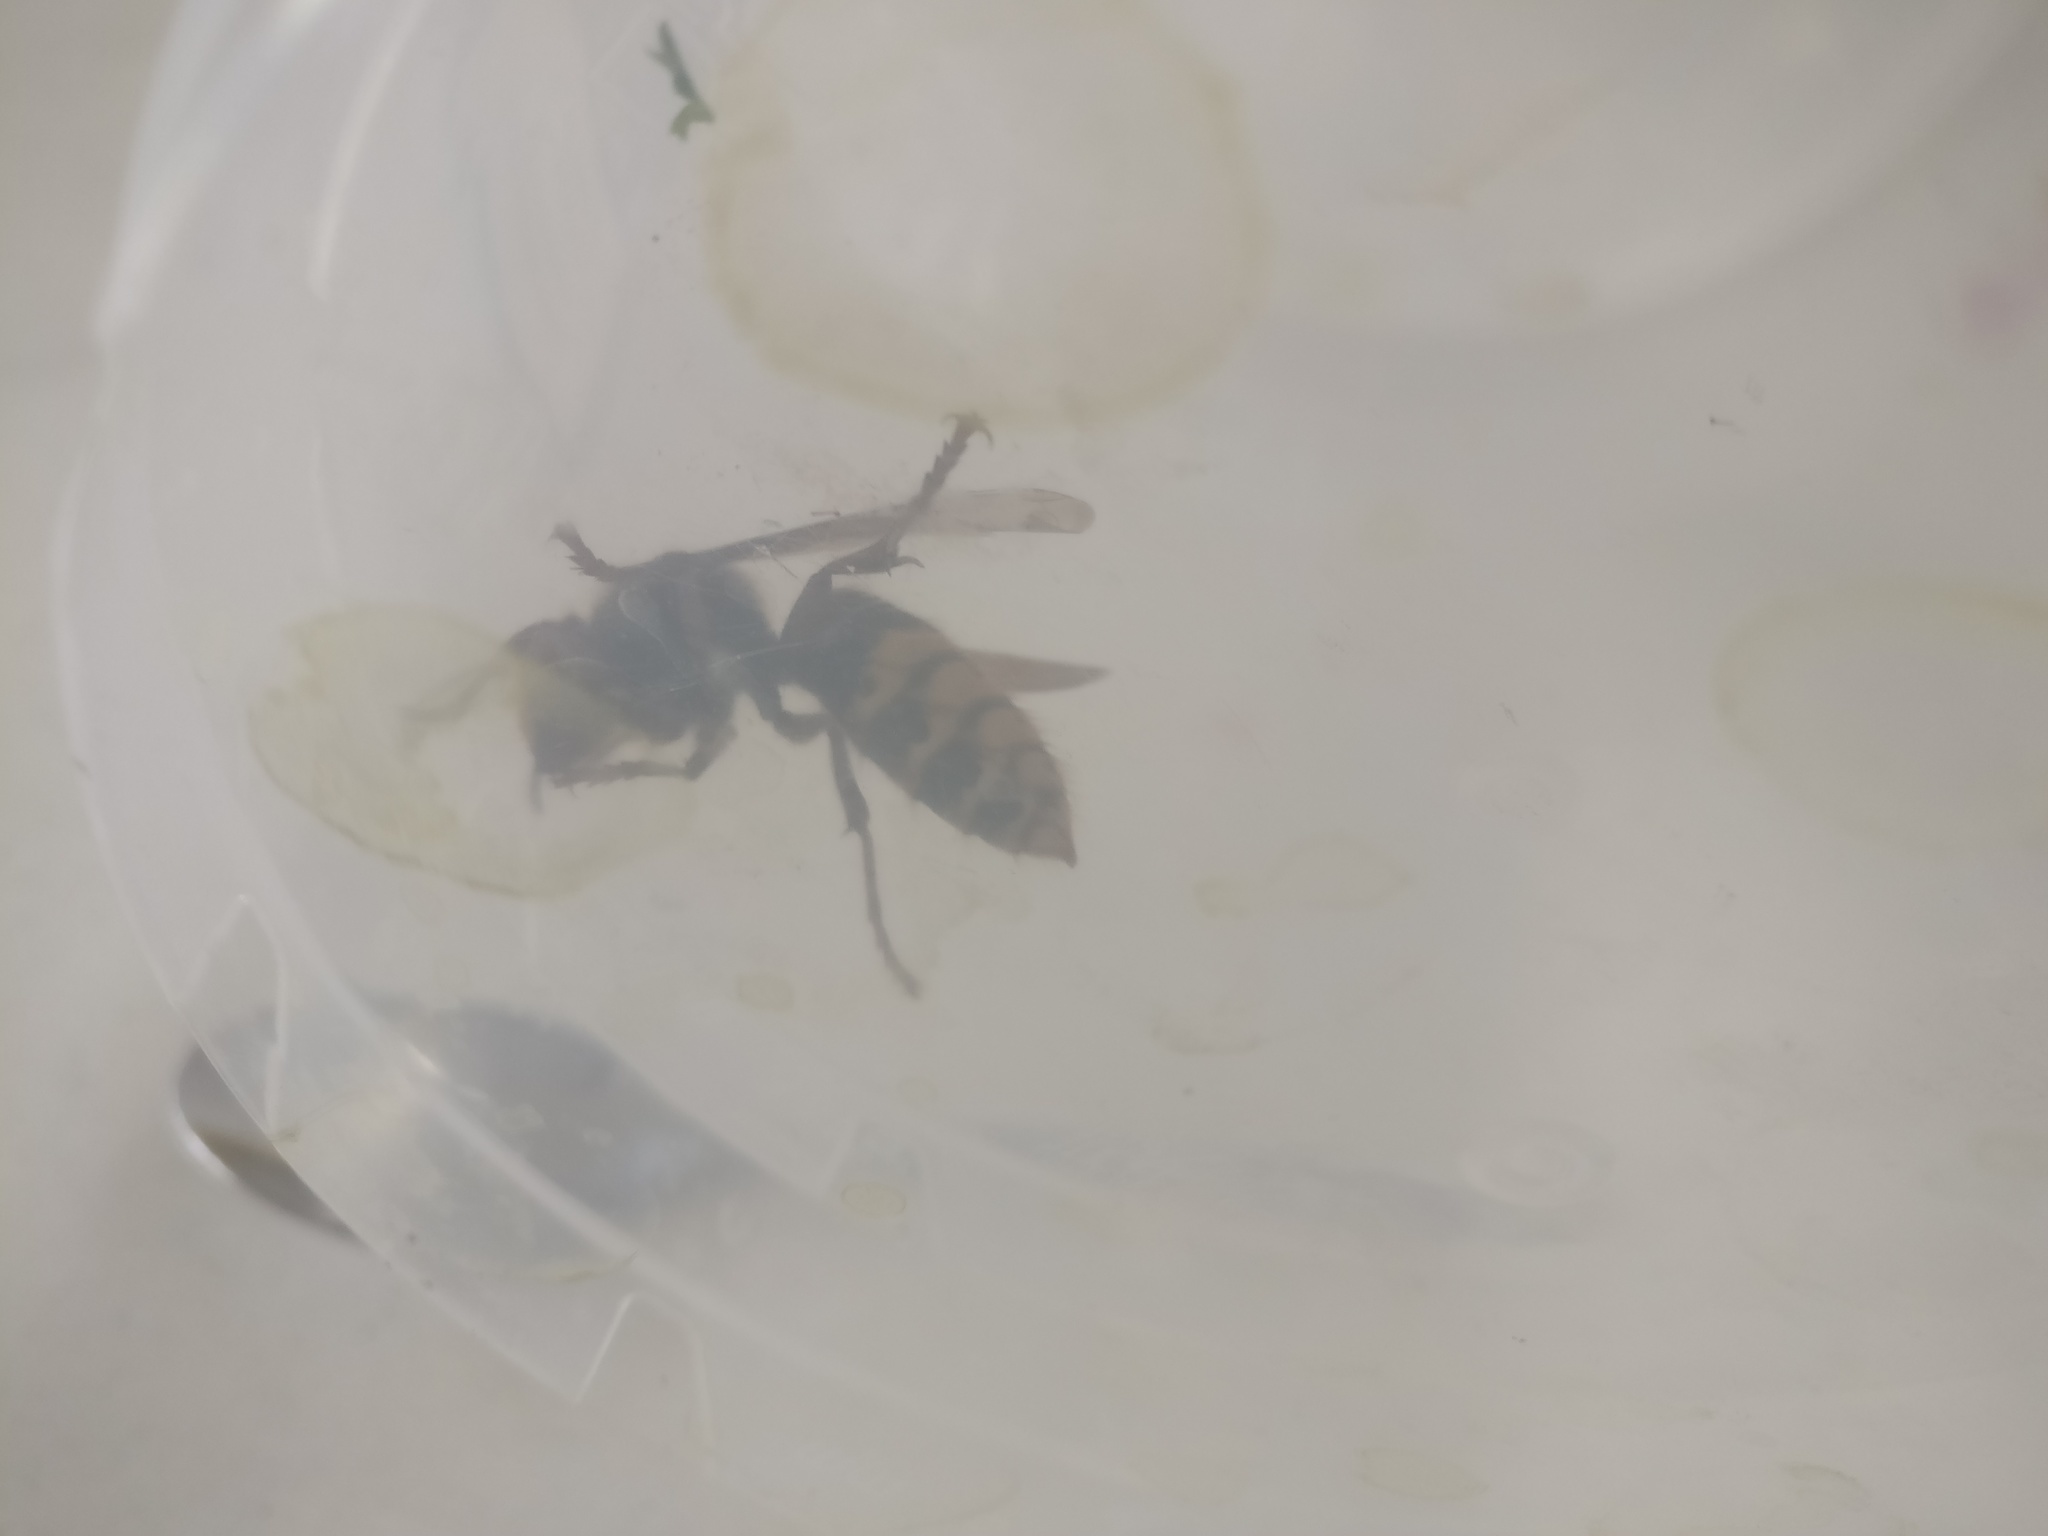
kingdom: Animalia
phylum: Arthropoda
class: Insecta
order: Hymenoptera
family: Vespidae
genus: Vespa
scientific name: Vespa crabro
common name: Hornet
